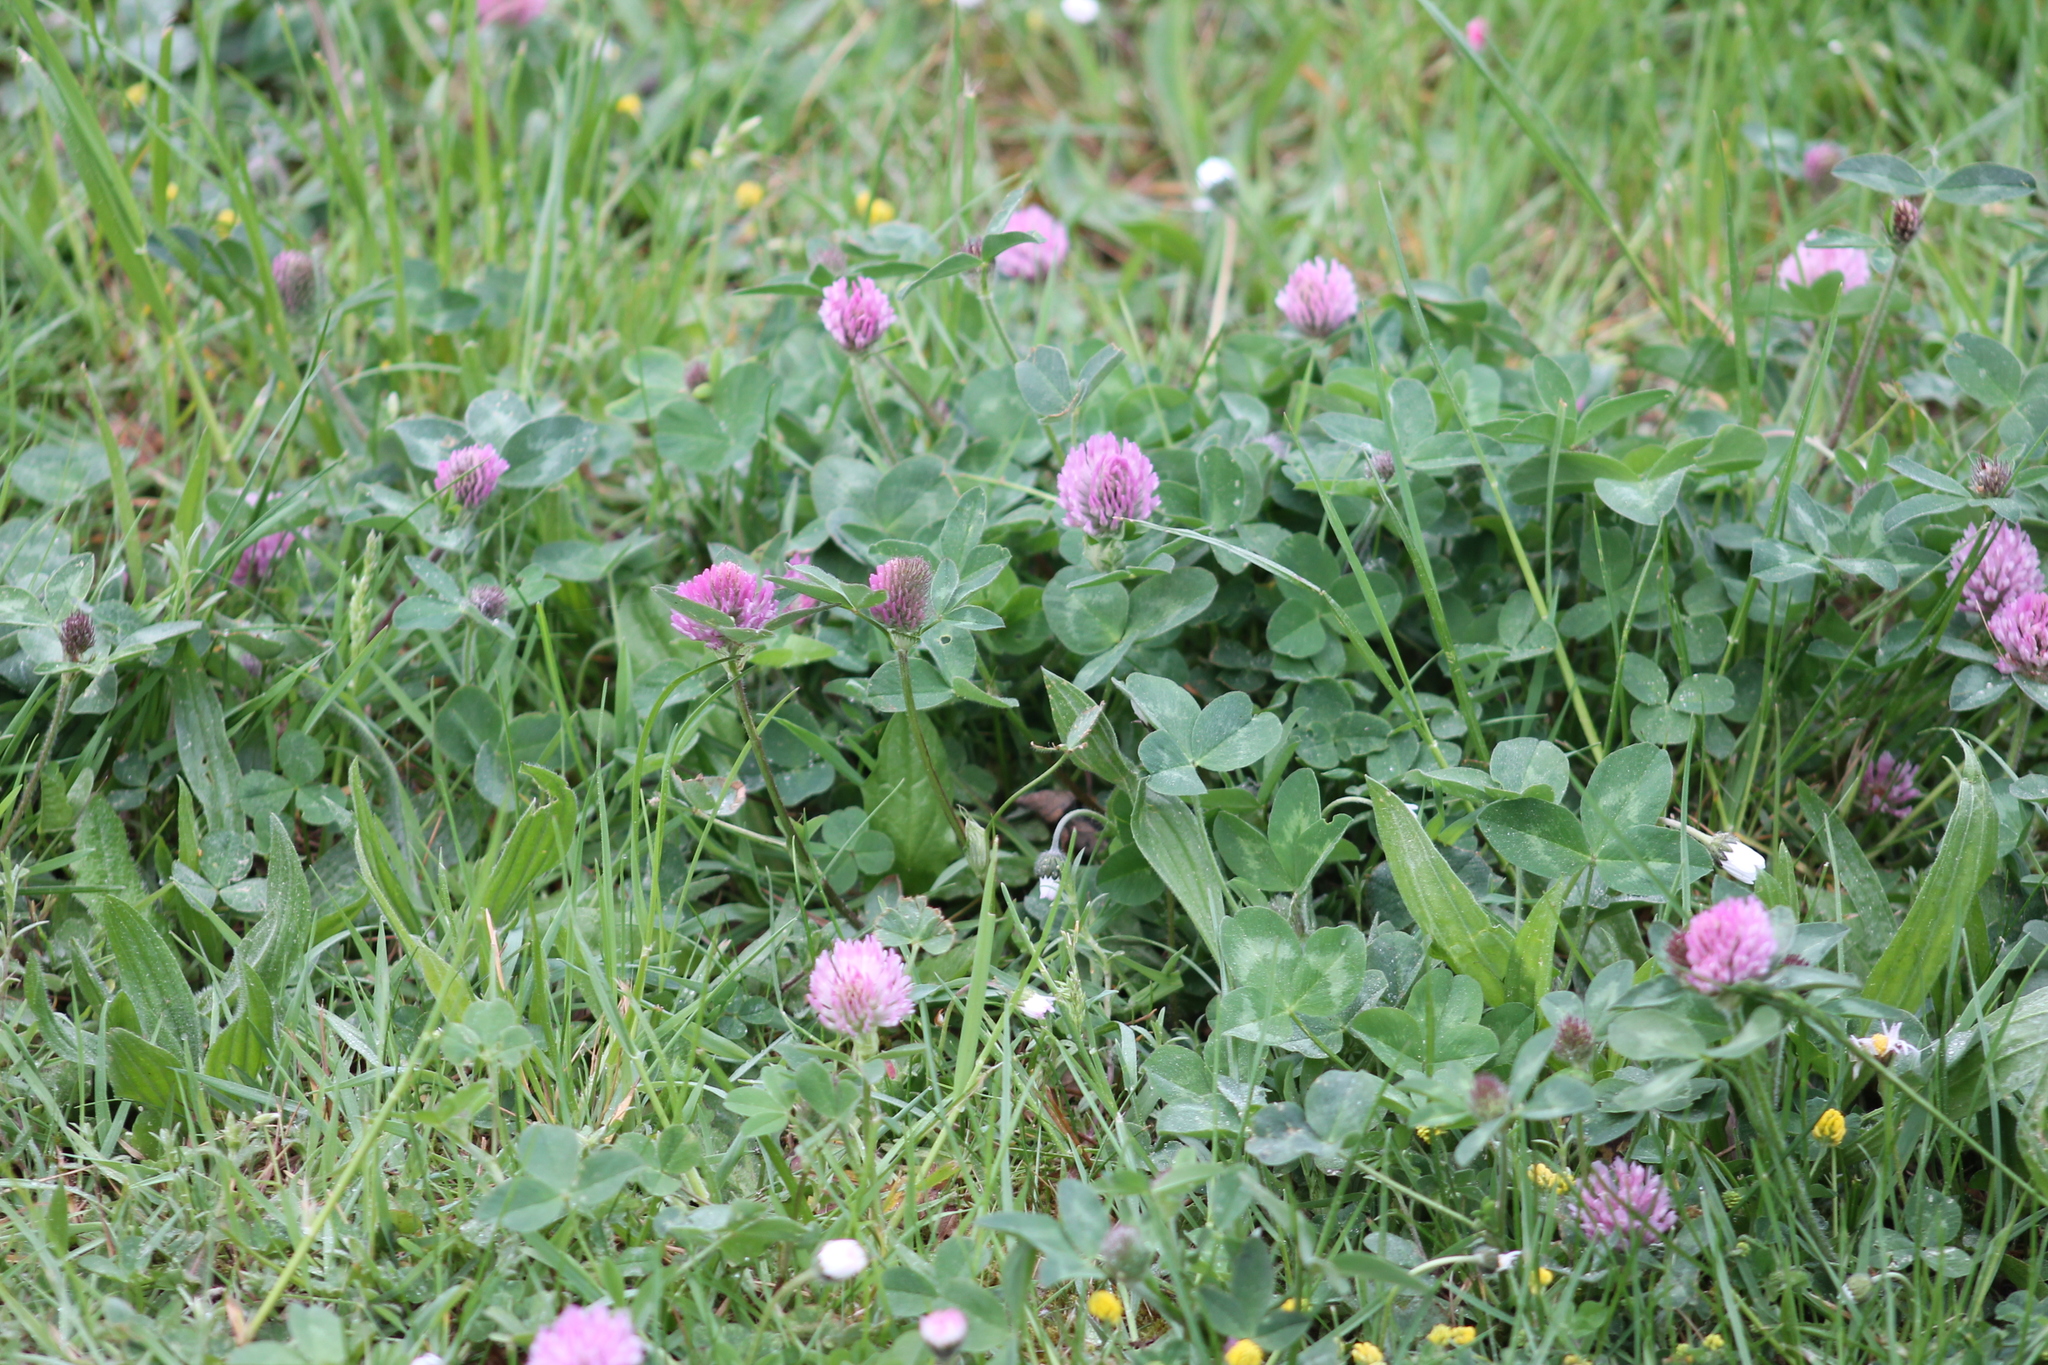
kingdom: Plantae
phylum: Tracheophyta
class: Magnoliopsida
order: Fabales
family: Fabaceae
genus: Trifolium
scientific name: Trifolium pratense
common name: Red clover
